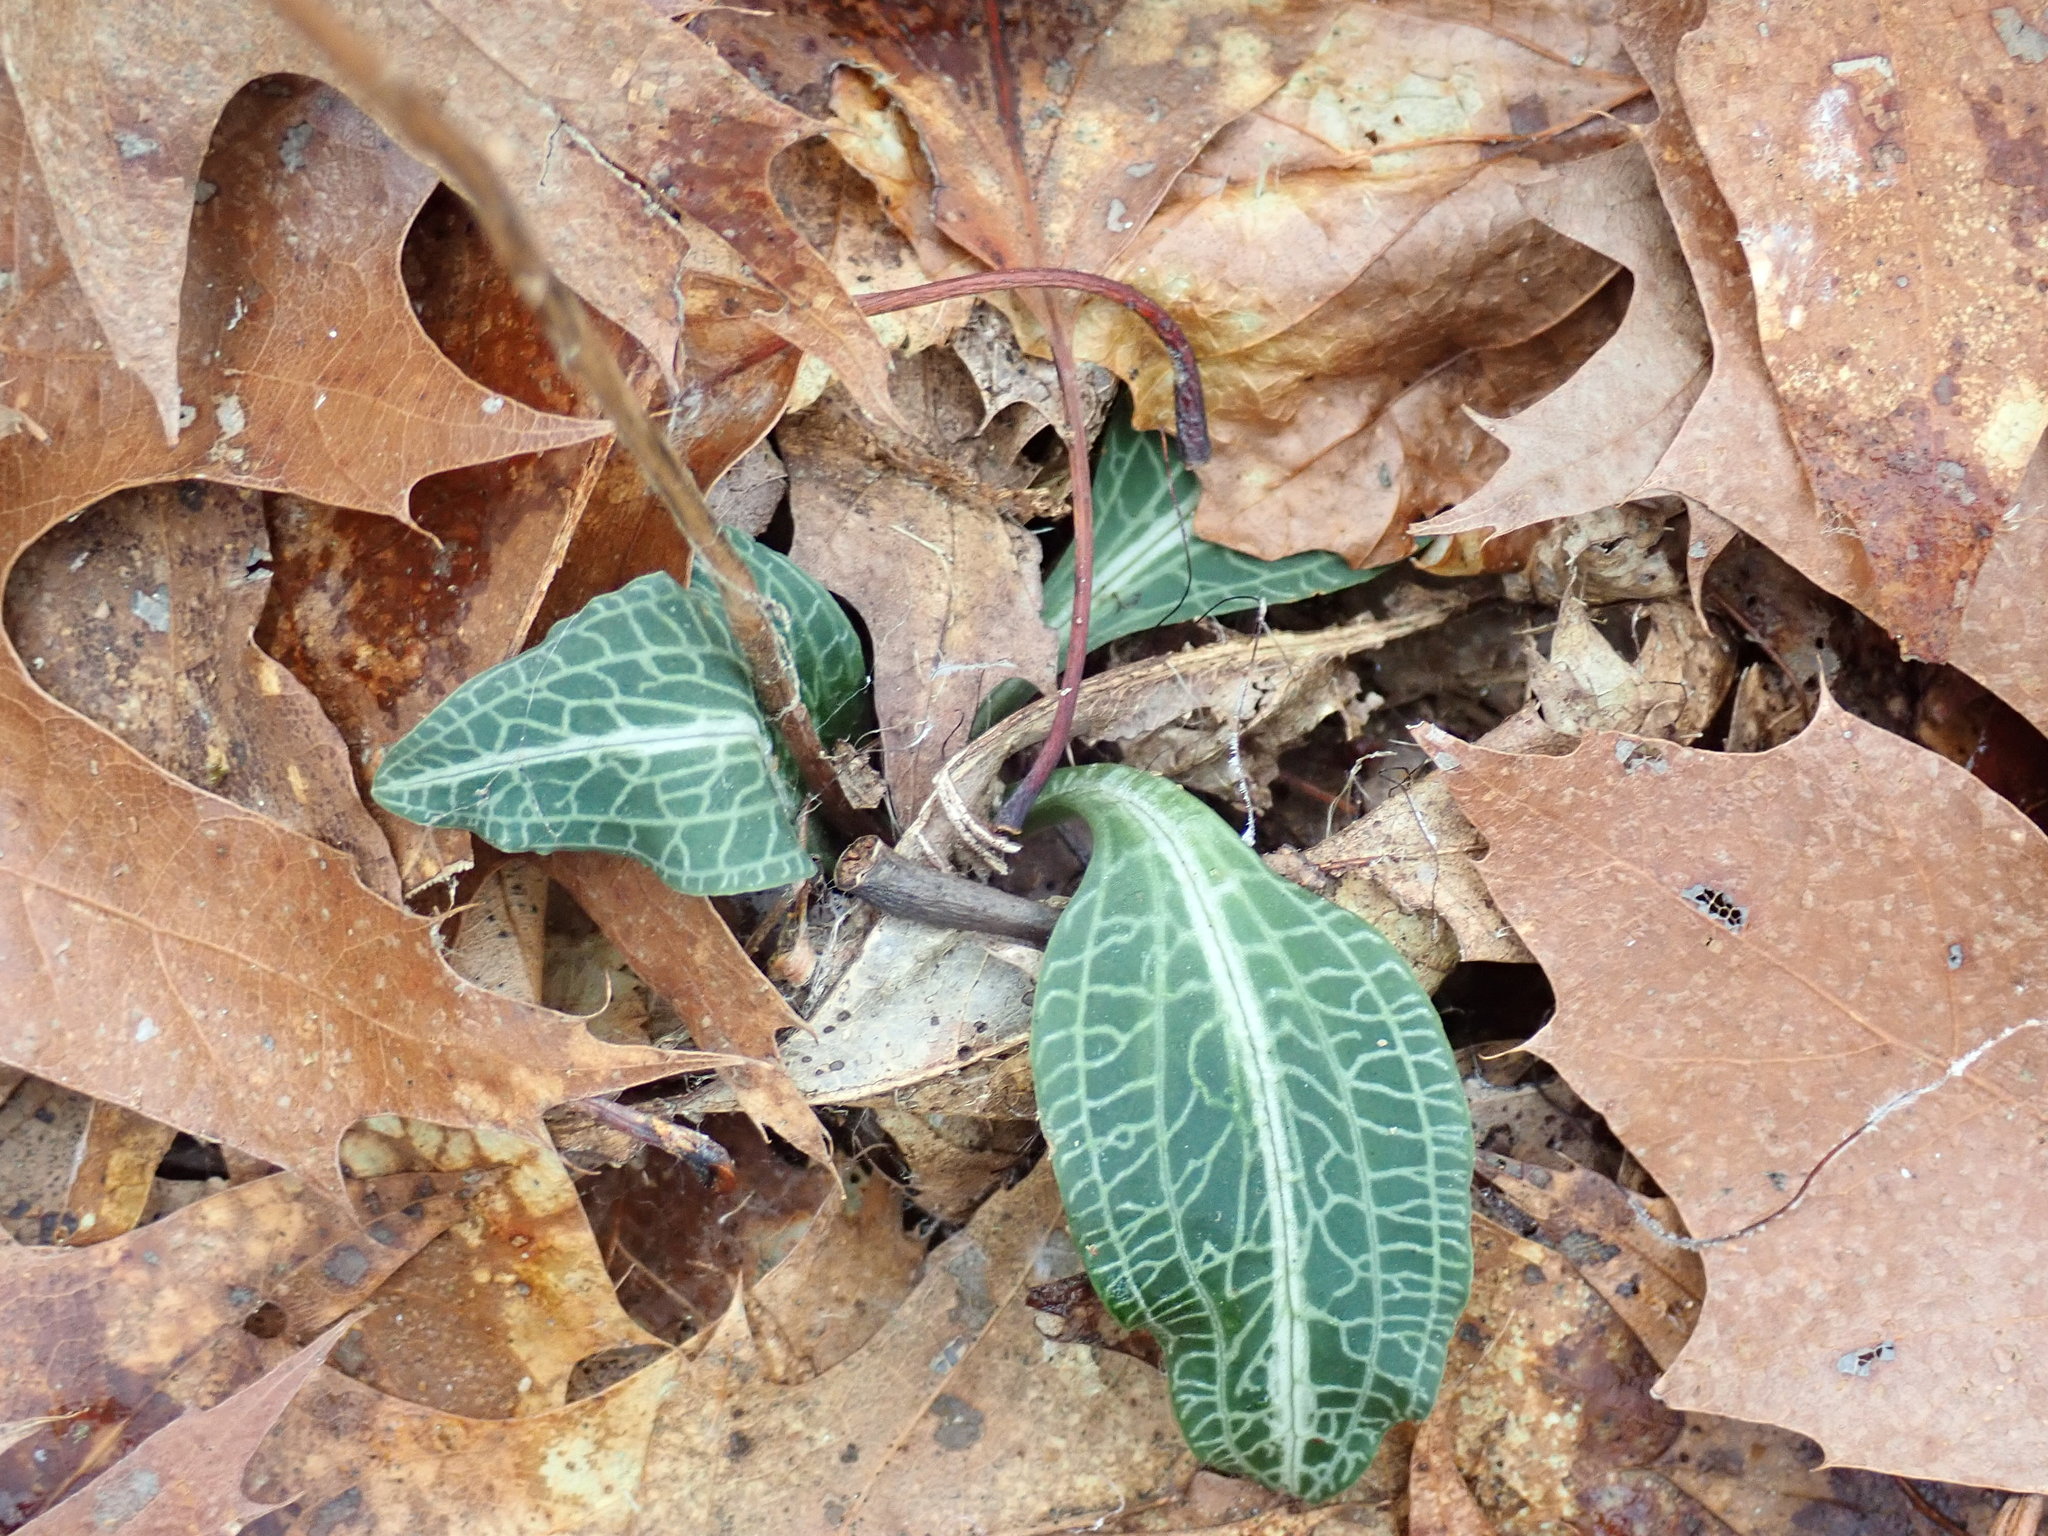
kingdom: Plantae
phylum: Tracheophyta
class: Liliopsida
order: Asparagales
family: Orchidaceae
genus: Goodyera
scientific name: Goodyera pubescens
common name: Downy rattlesnake-plantain
